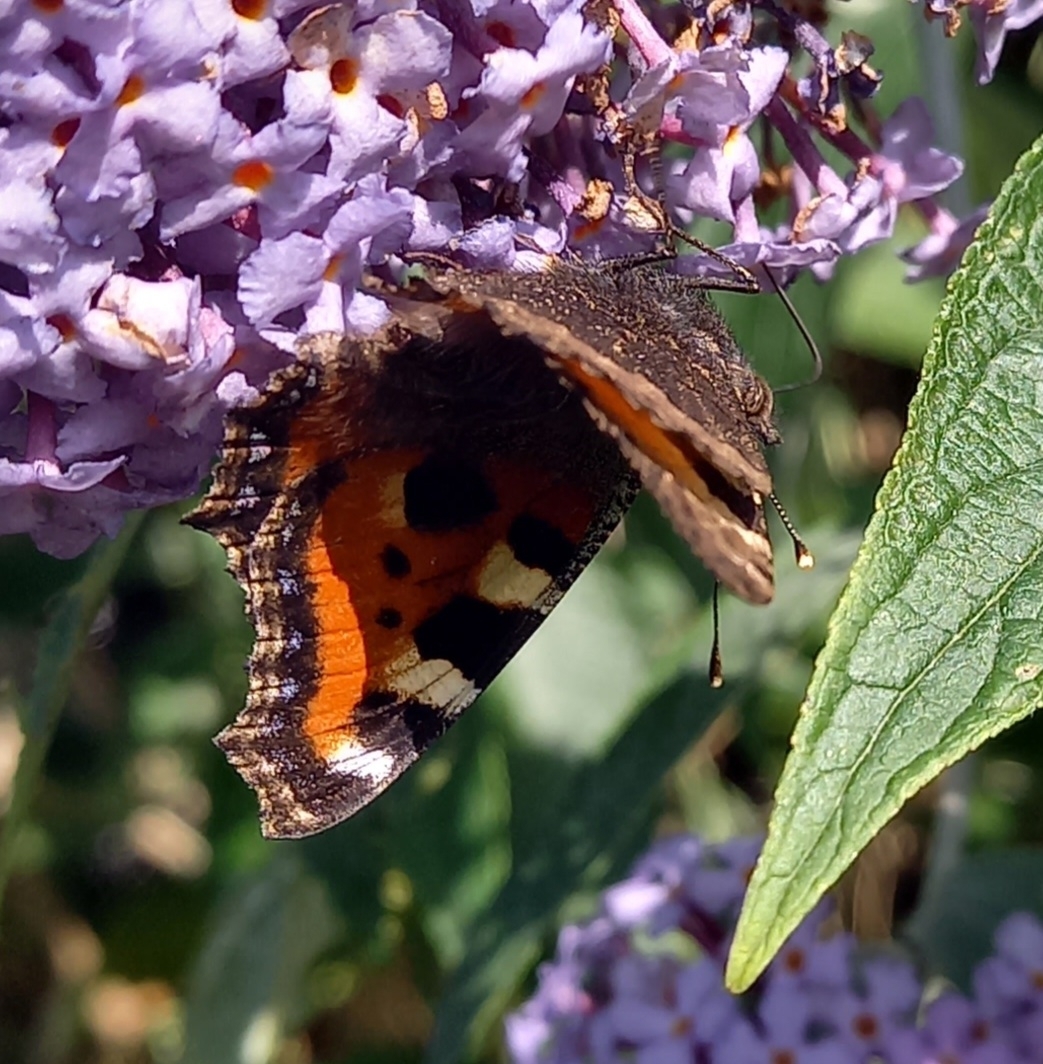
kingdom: Animalia
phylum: Arthropoda
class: Insecta
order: Lepidoptera
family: Nymphalidae
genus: Aglais
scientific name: Aglais urticae
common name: Small tortoiseshell
